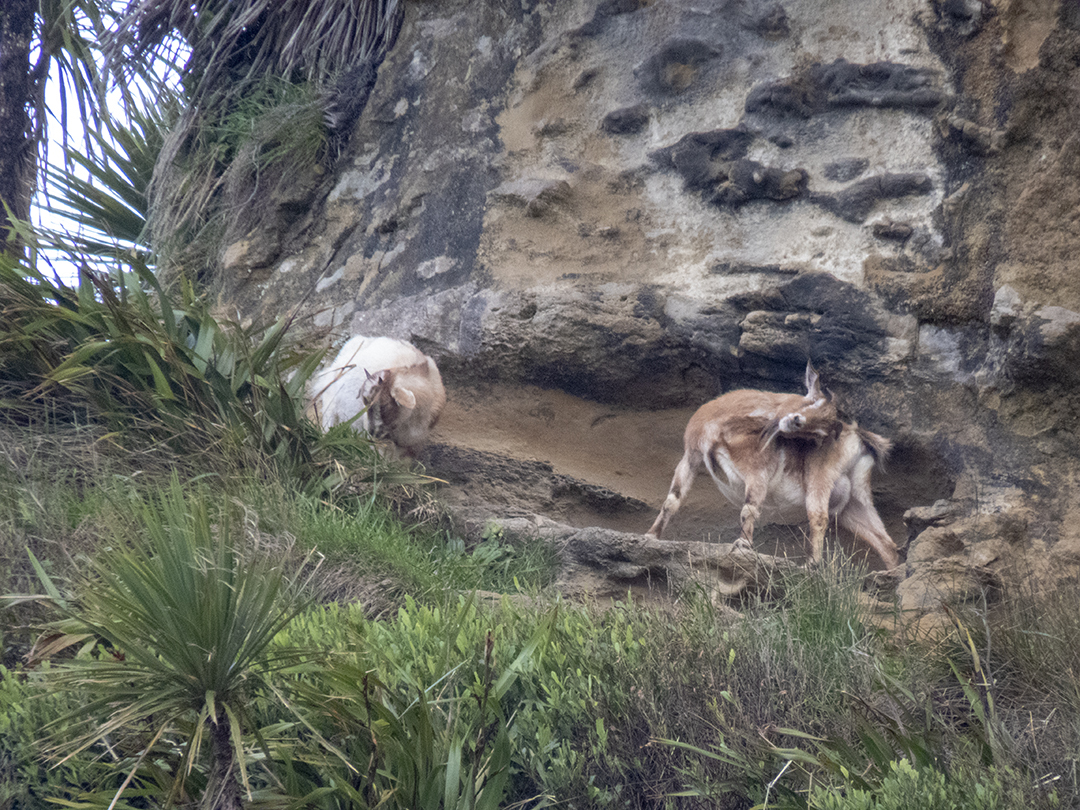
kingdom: Animalia
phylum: Chordata
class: Mammalia
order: Artiodactyla
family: Bovidae
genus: Capra
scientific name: Capra hircus
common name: Domestic goat
